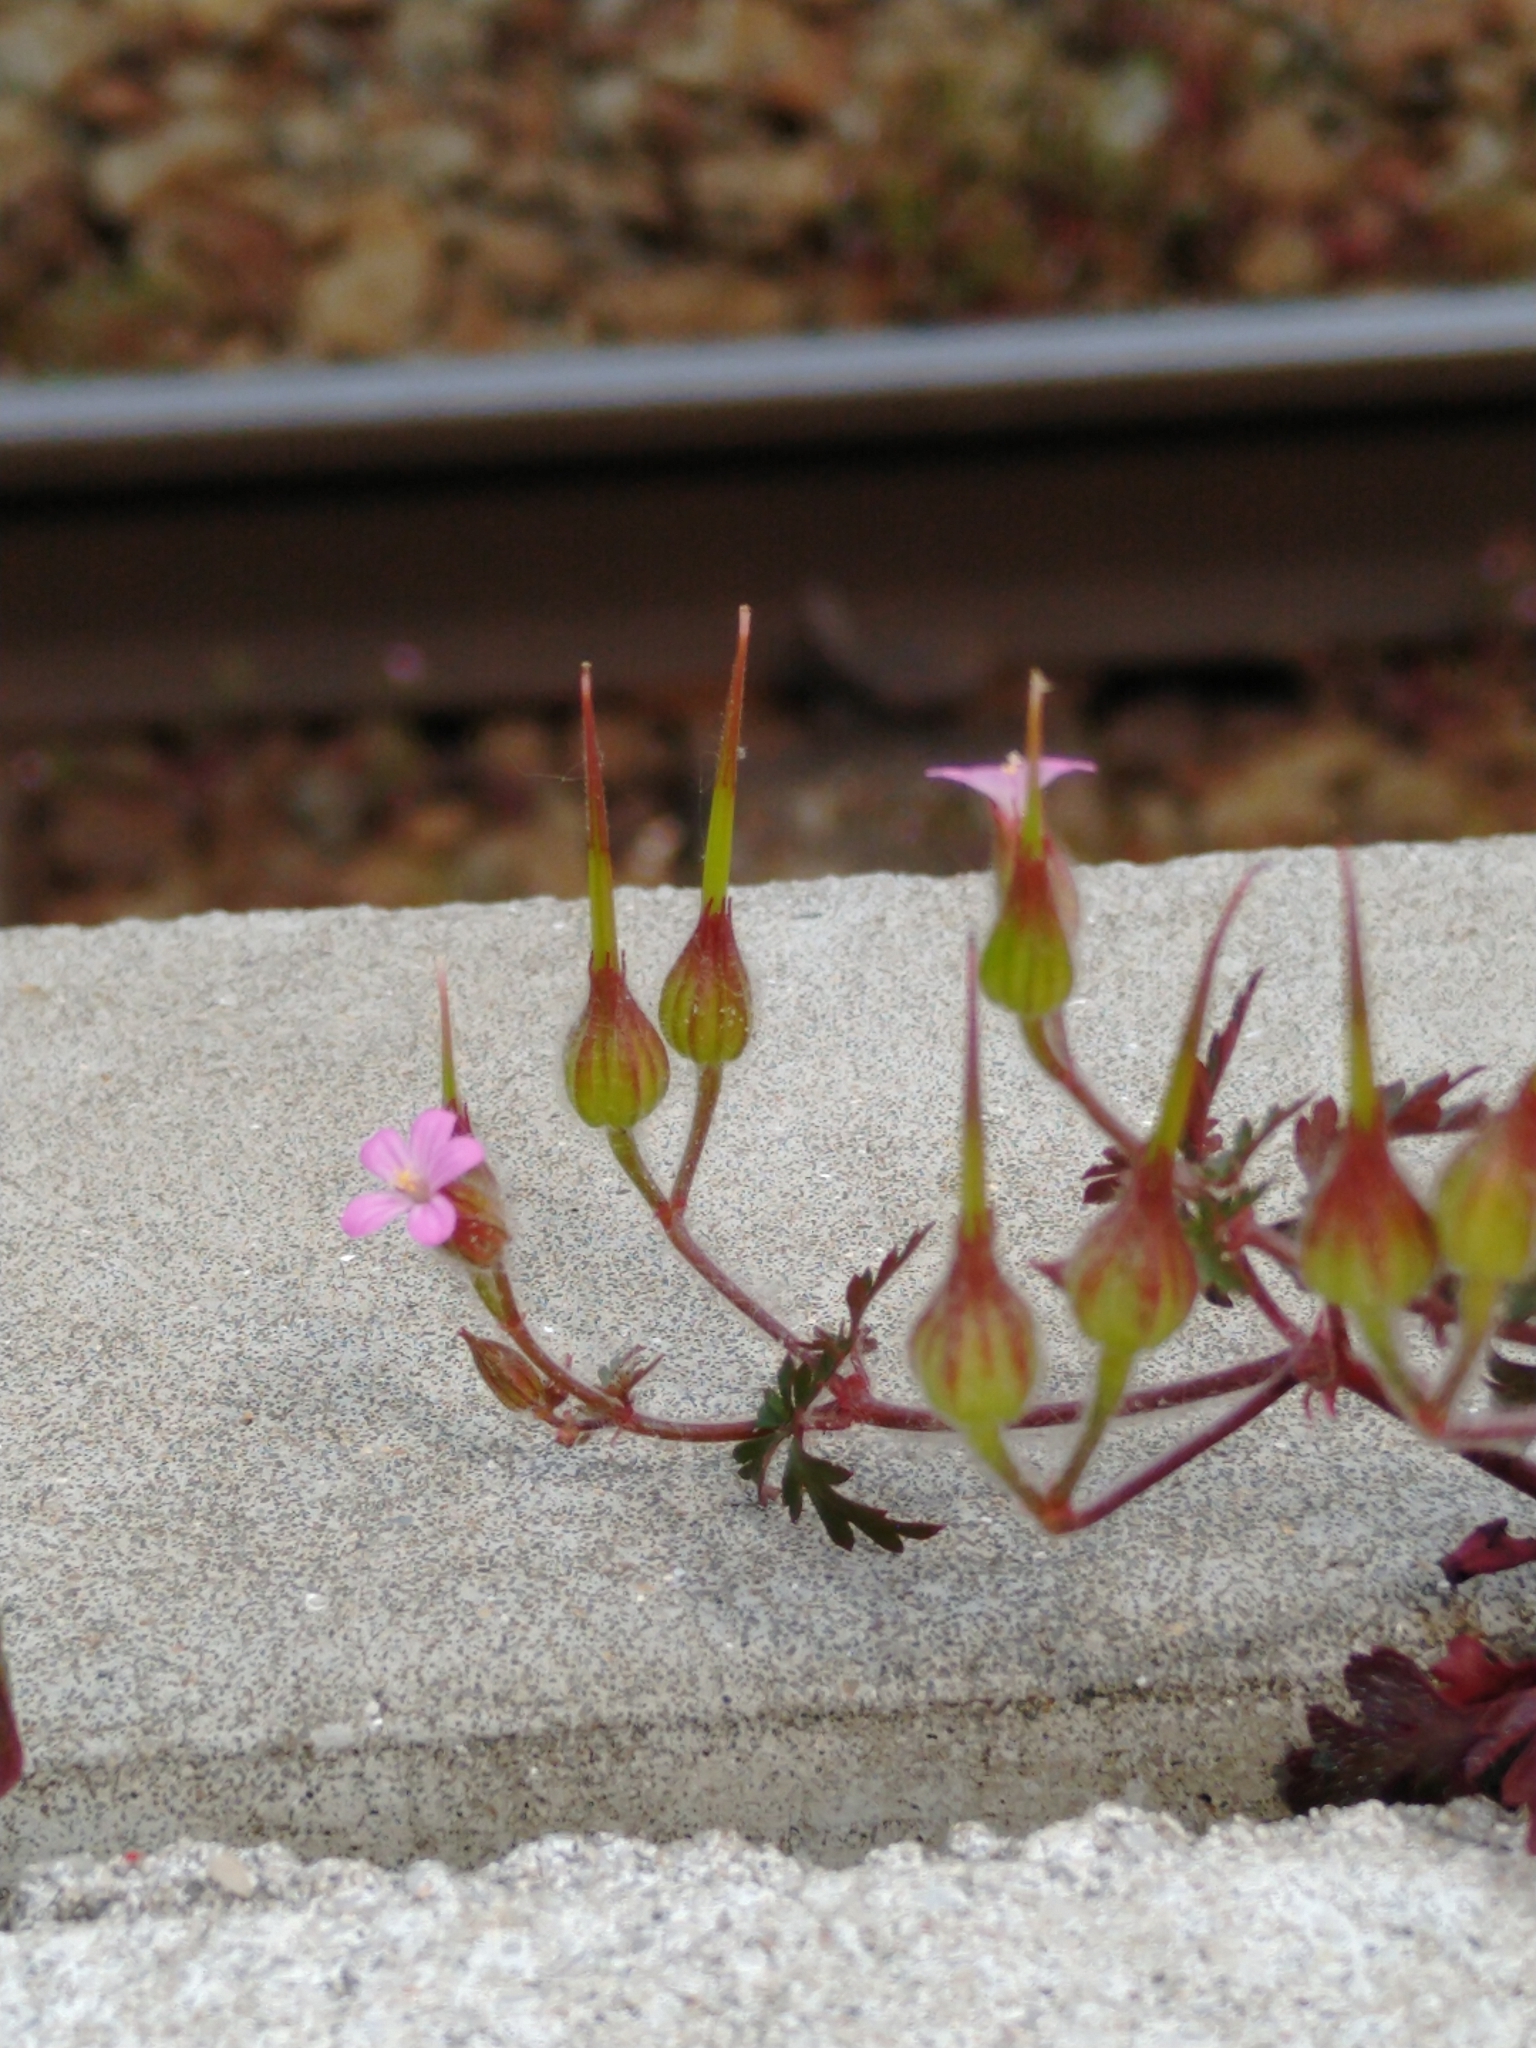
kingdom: Plantae
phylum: Tracheophyta
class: Magnoliopsida
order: Geraniales
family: Geraniaceae
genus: Geranium
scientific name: Geranium purpureum
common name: Little-robin
